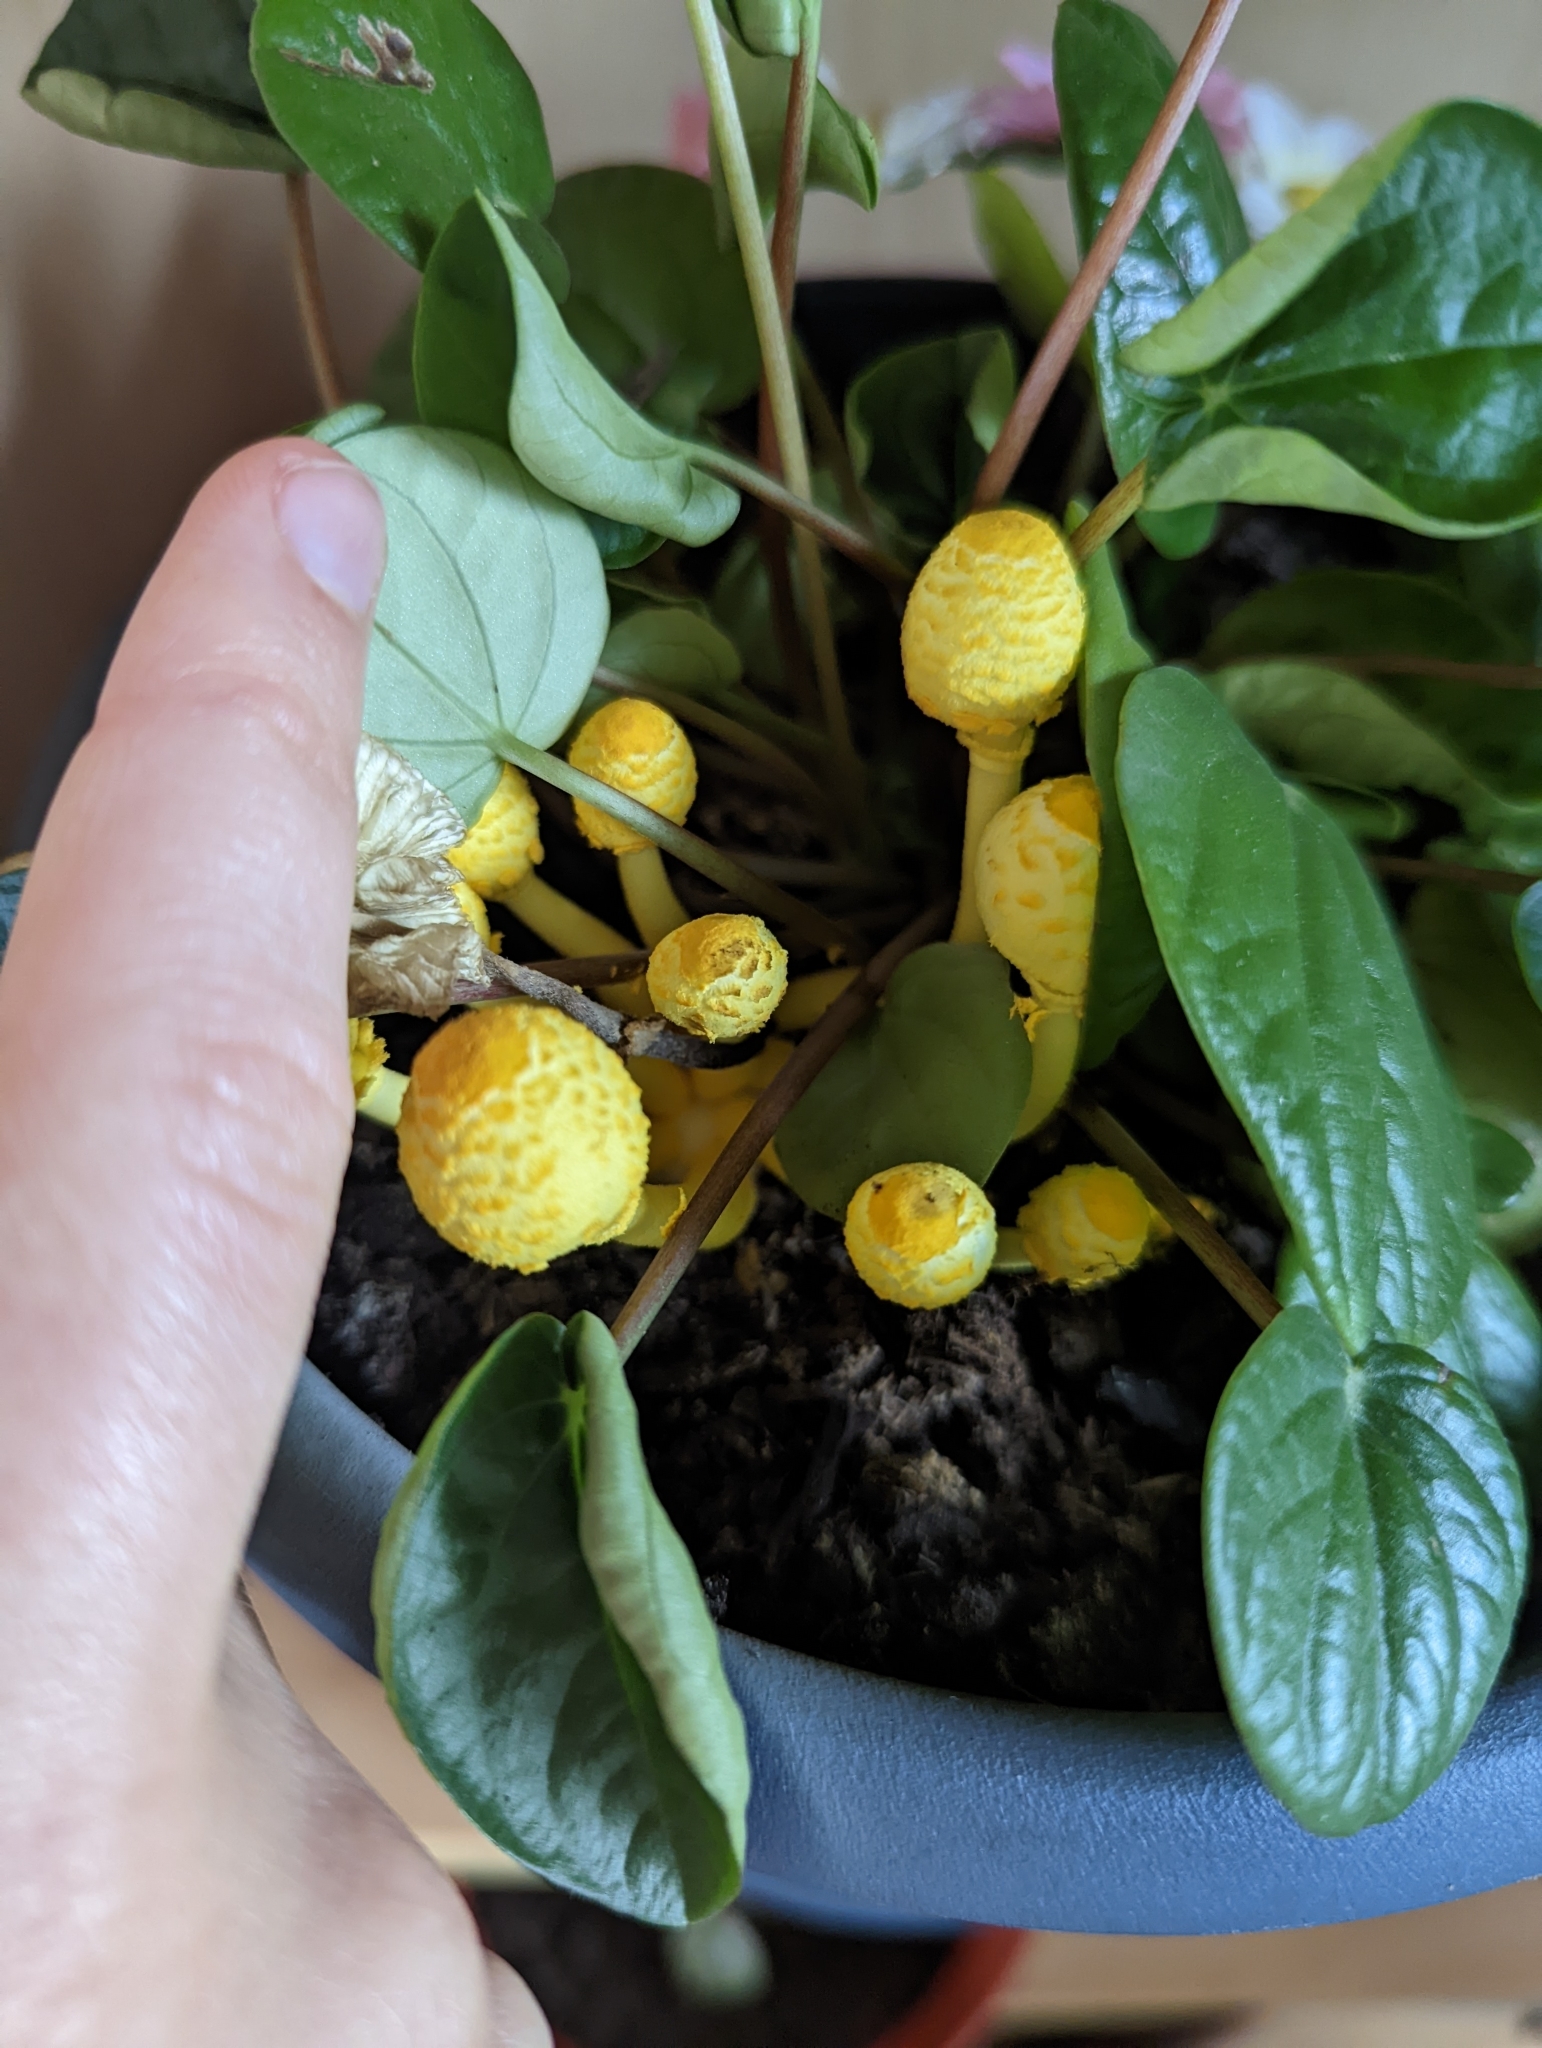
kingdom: Fungi
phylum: Basidiomycota
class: Agaricomycetes
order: Agaricales
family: Agaricaceae
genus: Leucocoprinus
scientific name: Leucocoprinus birnbaumii
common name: Plantpot dapperling
